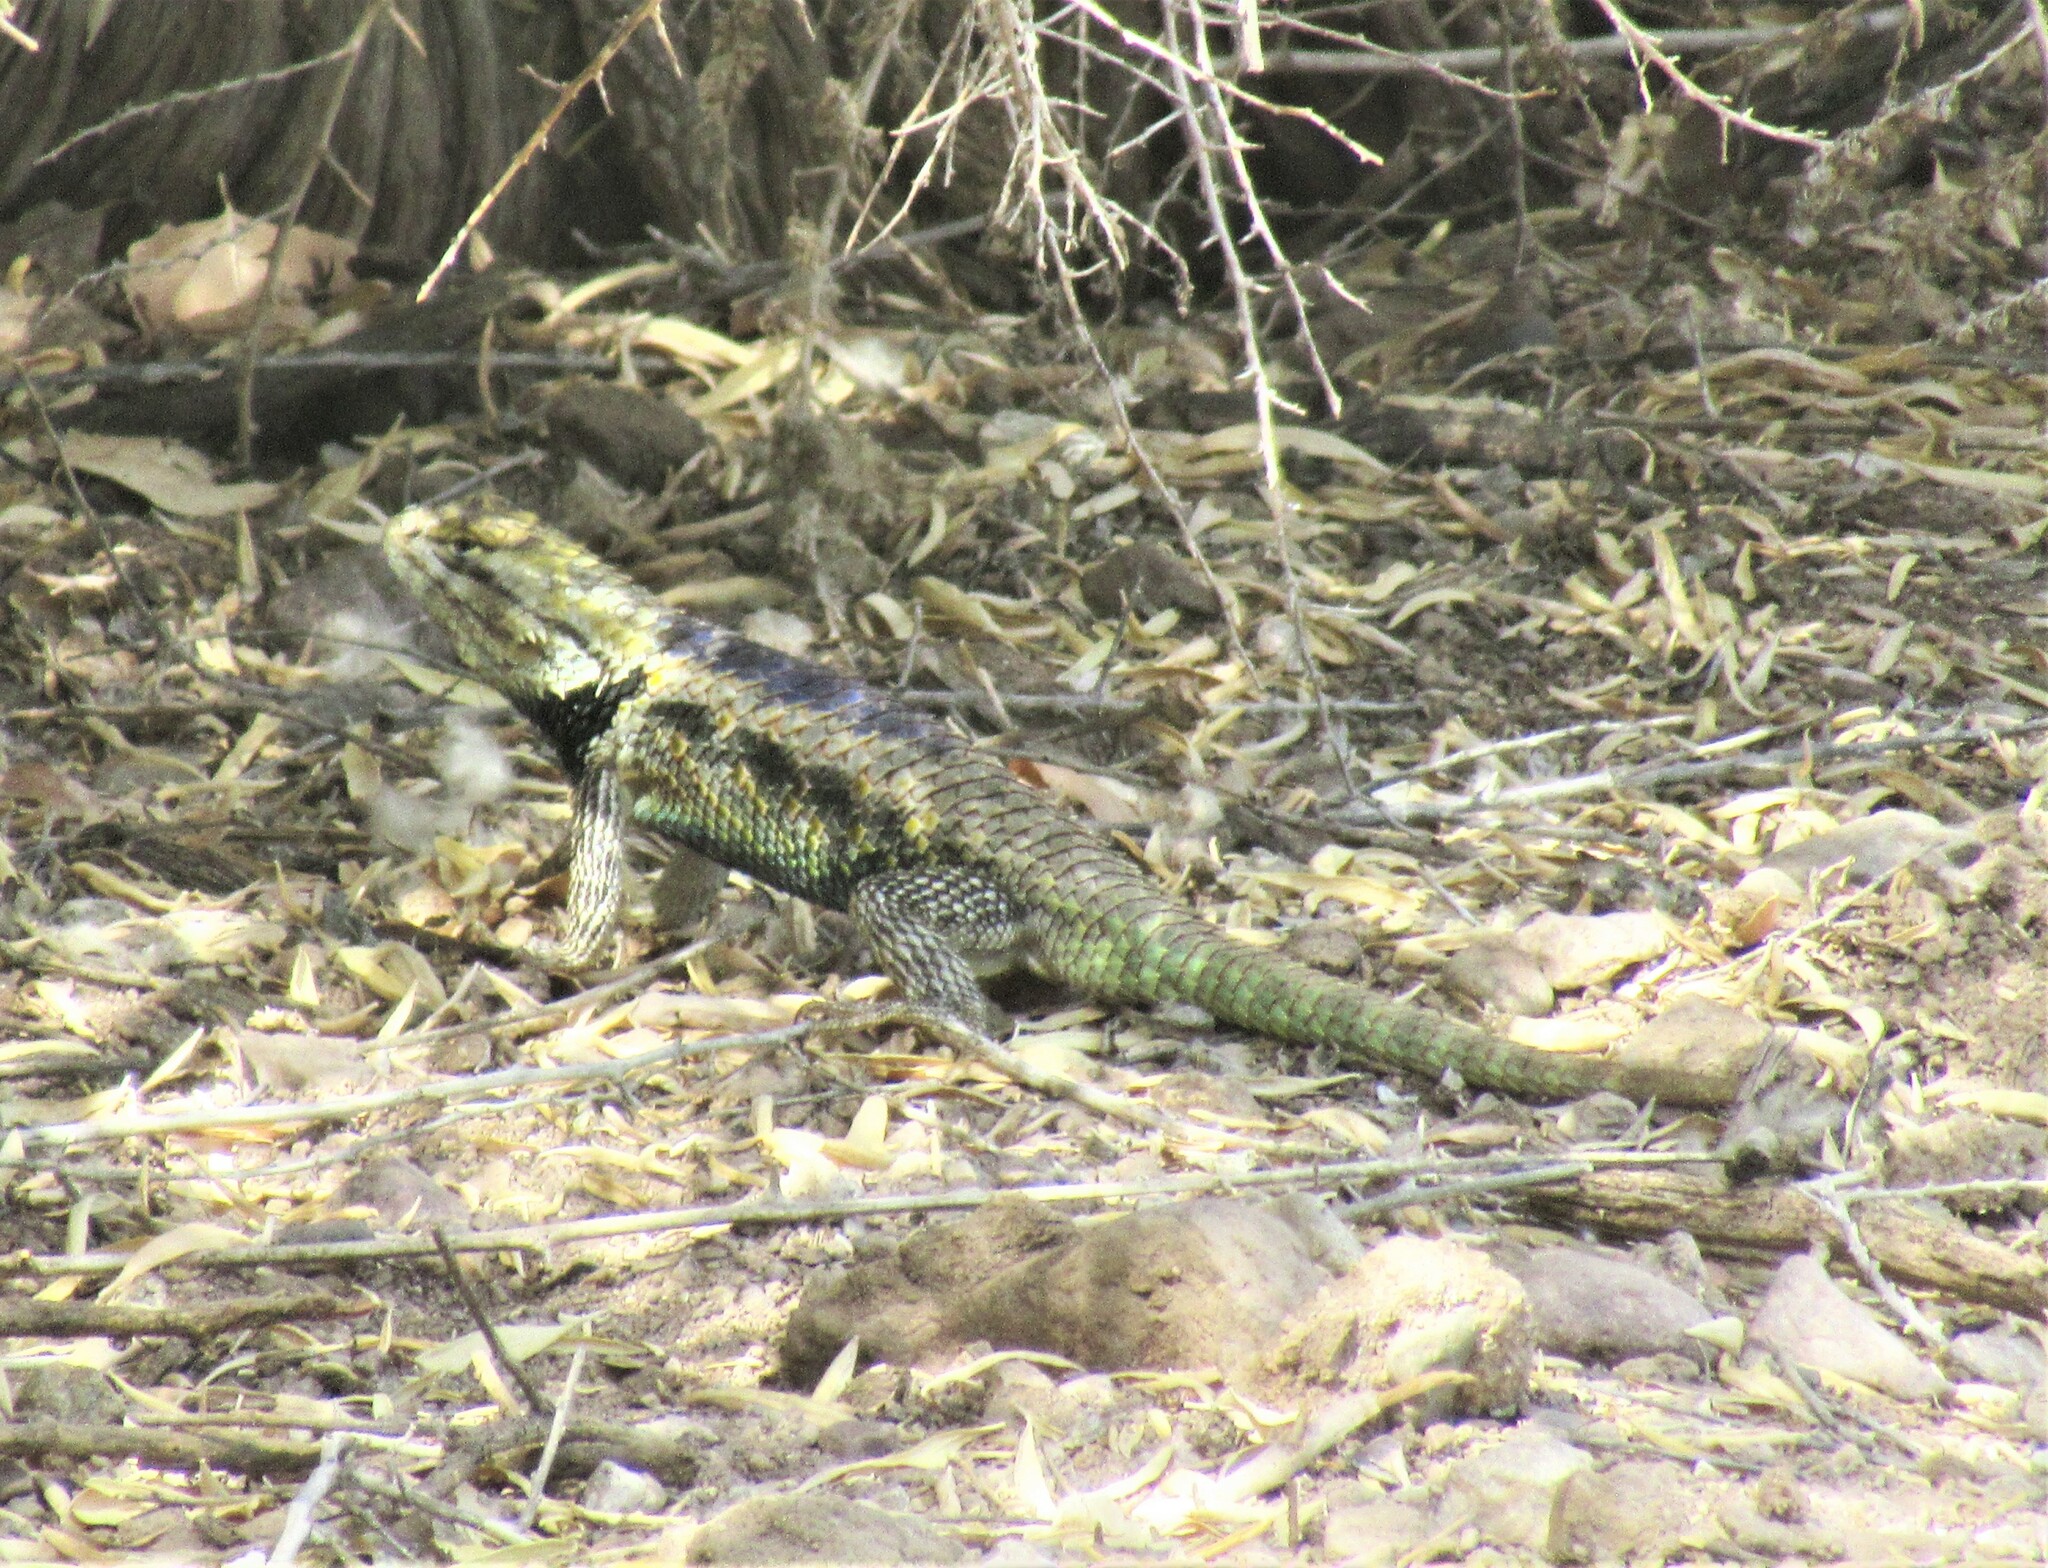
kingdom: Animalia
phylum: Chordata
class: Squamata
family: Phrynosomatidae
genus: Sceloporus
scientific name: Sceloporus magister
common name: Desert spiny lizard
